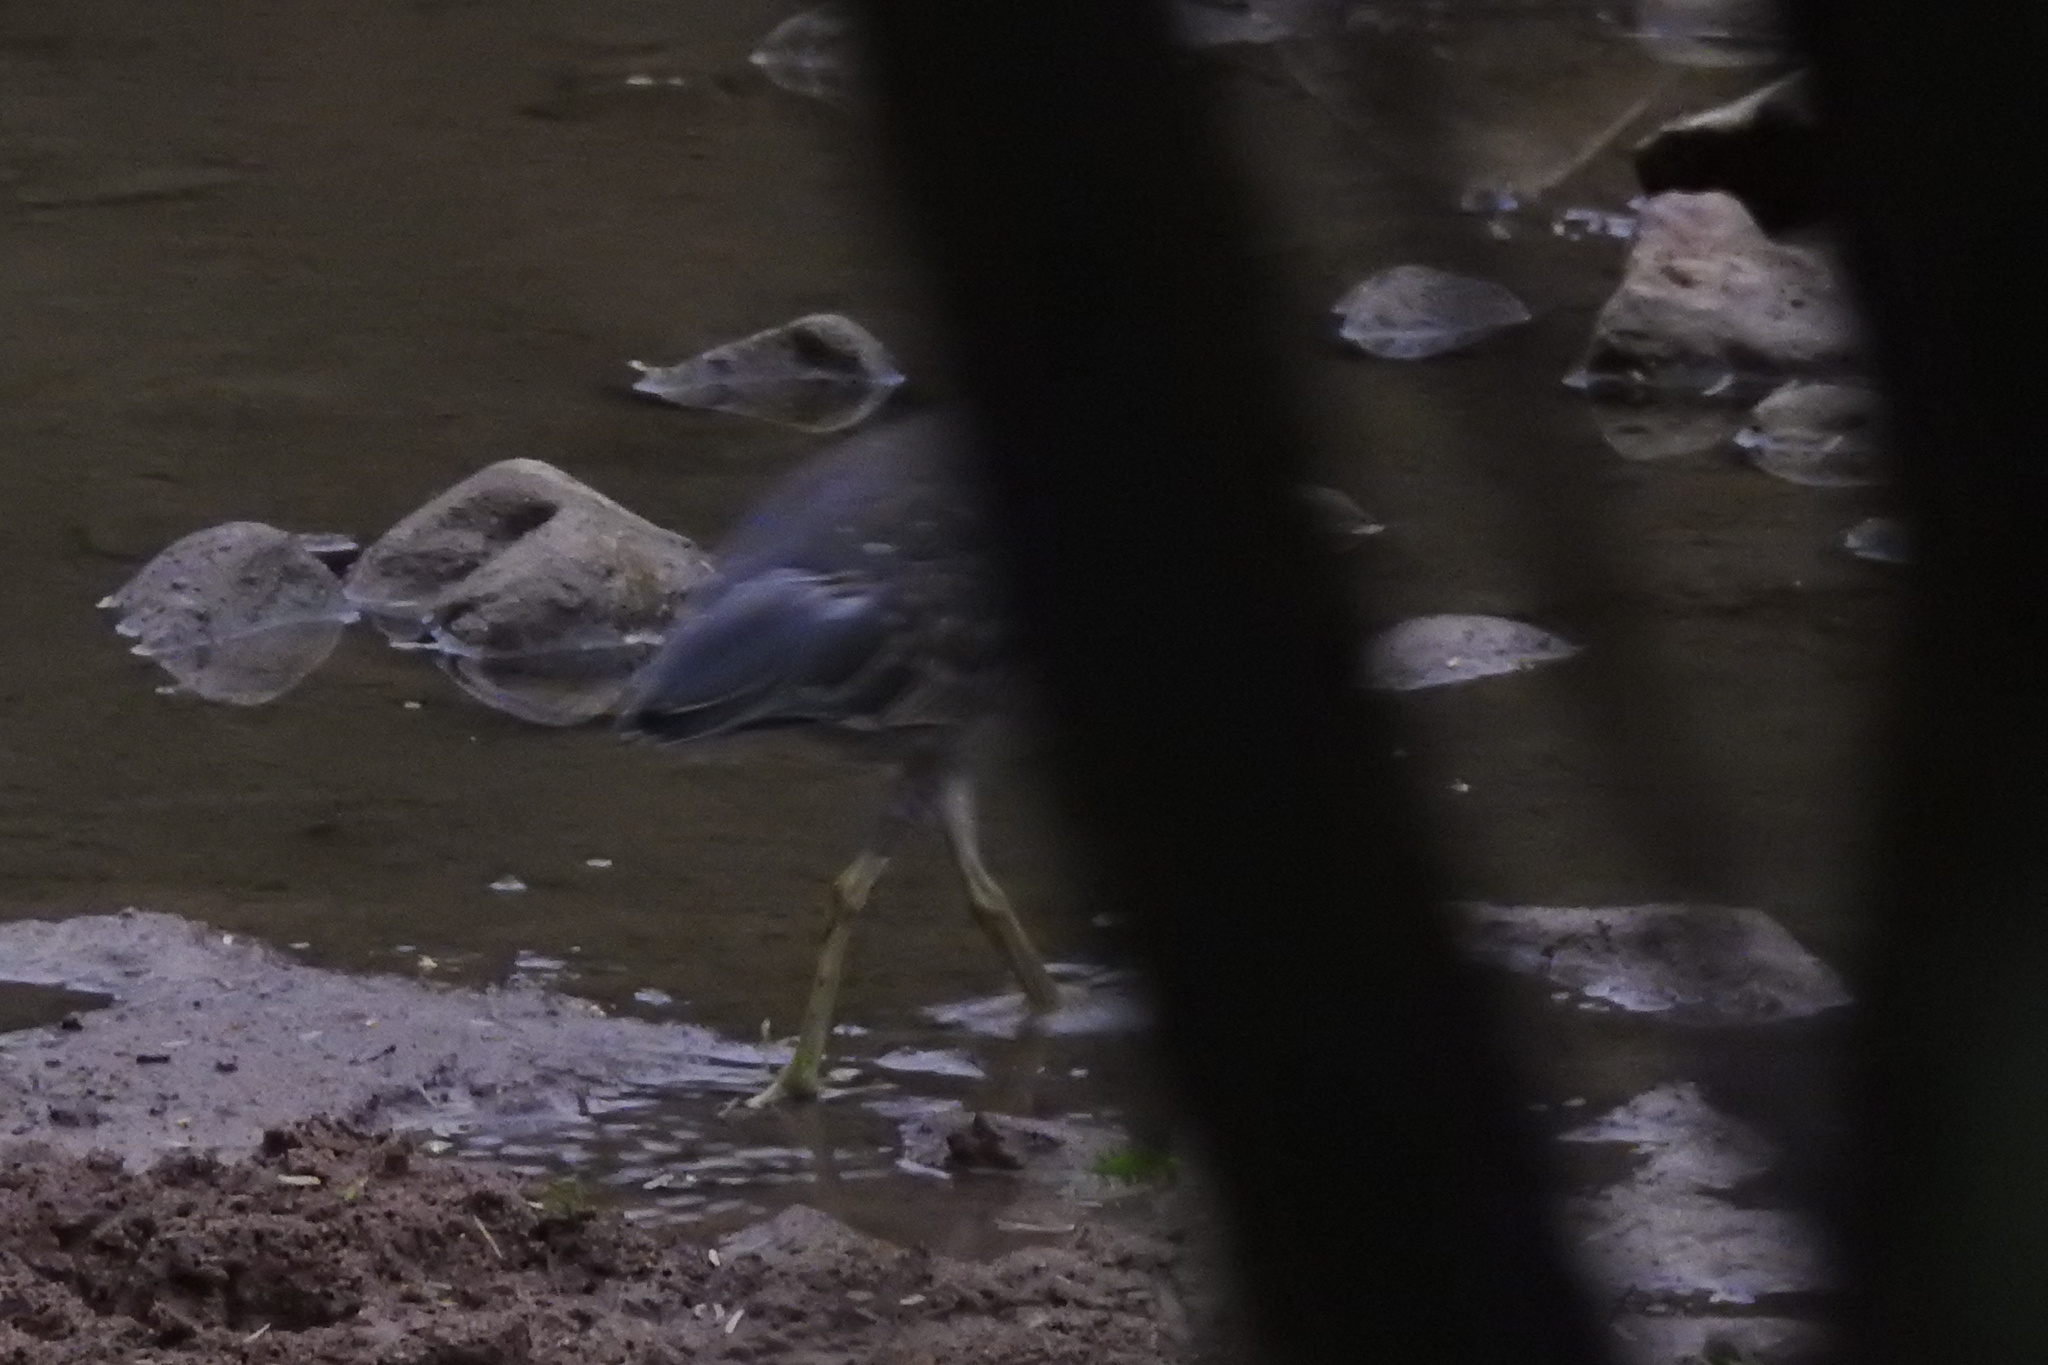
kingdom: Animalia
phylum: Chordata
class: Aves
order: Pelecaniformes
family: Ardeidae
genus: Nycticorax
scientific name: Nycticorax nycticorax
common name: Black-crowned night heron
